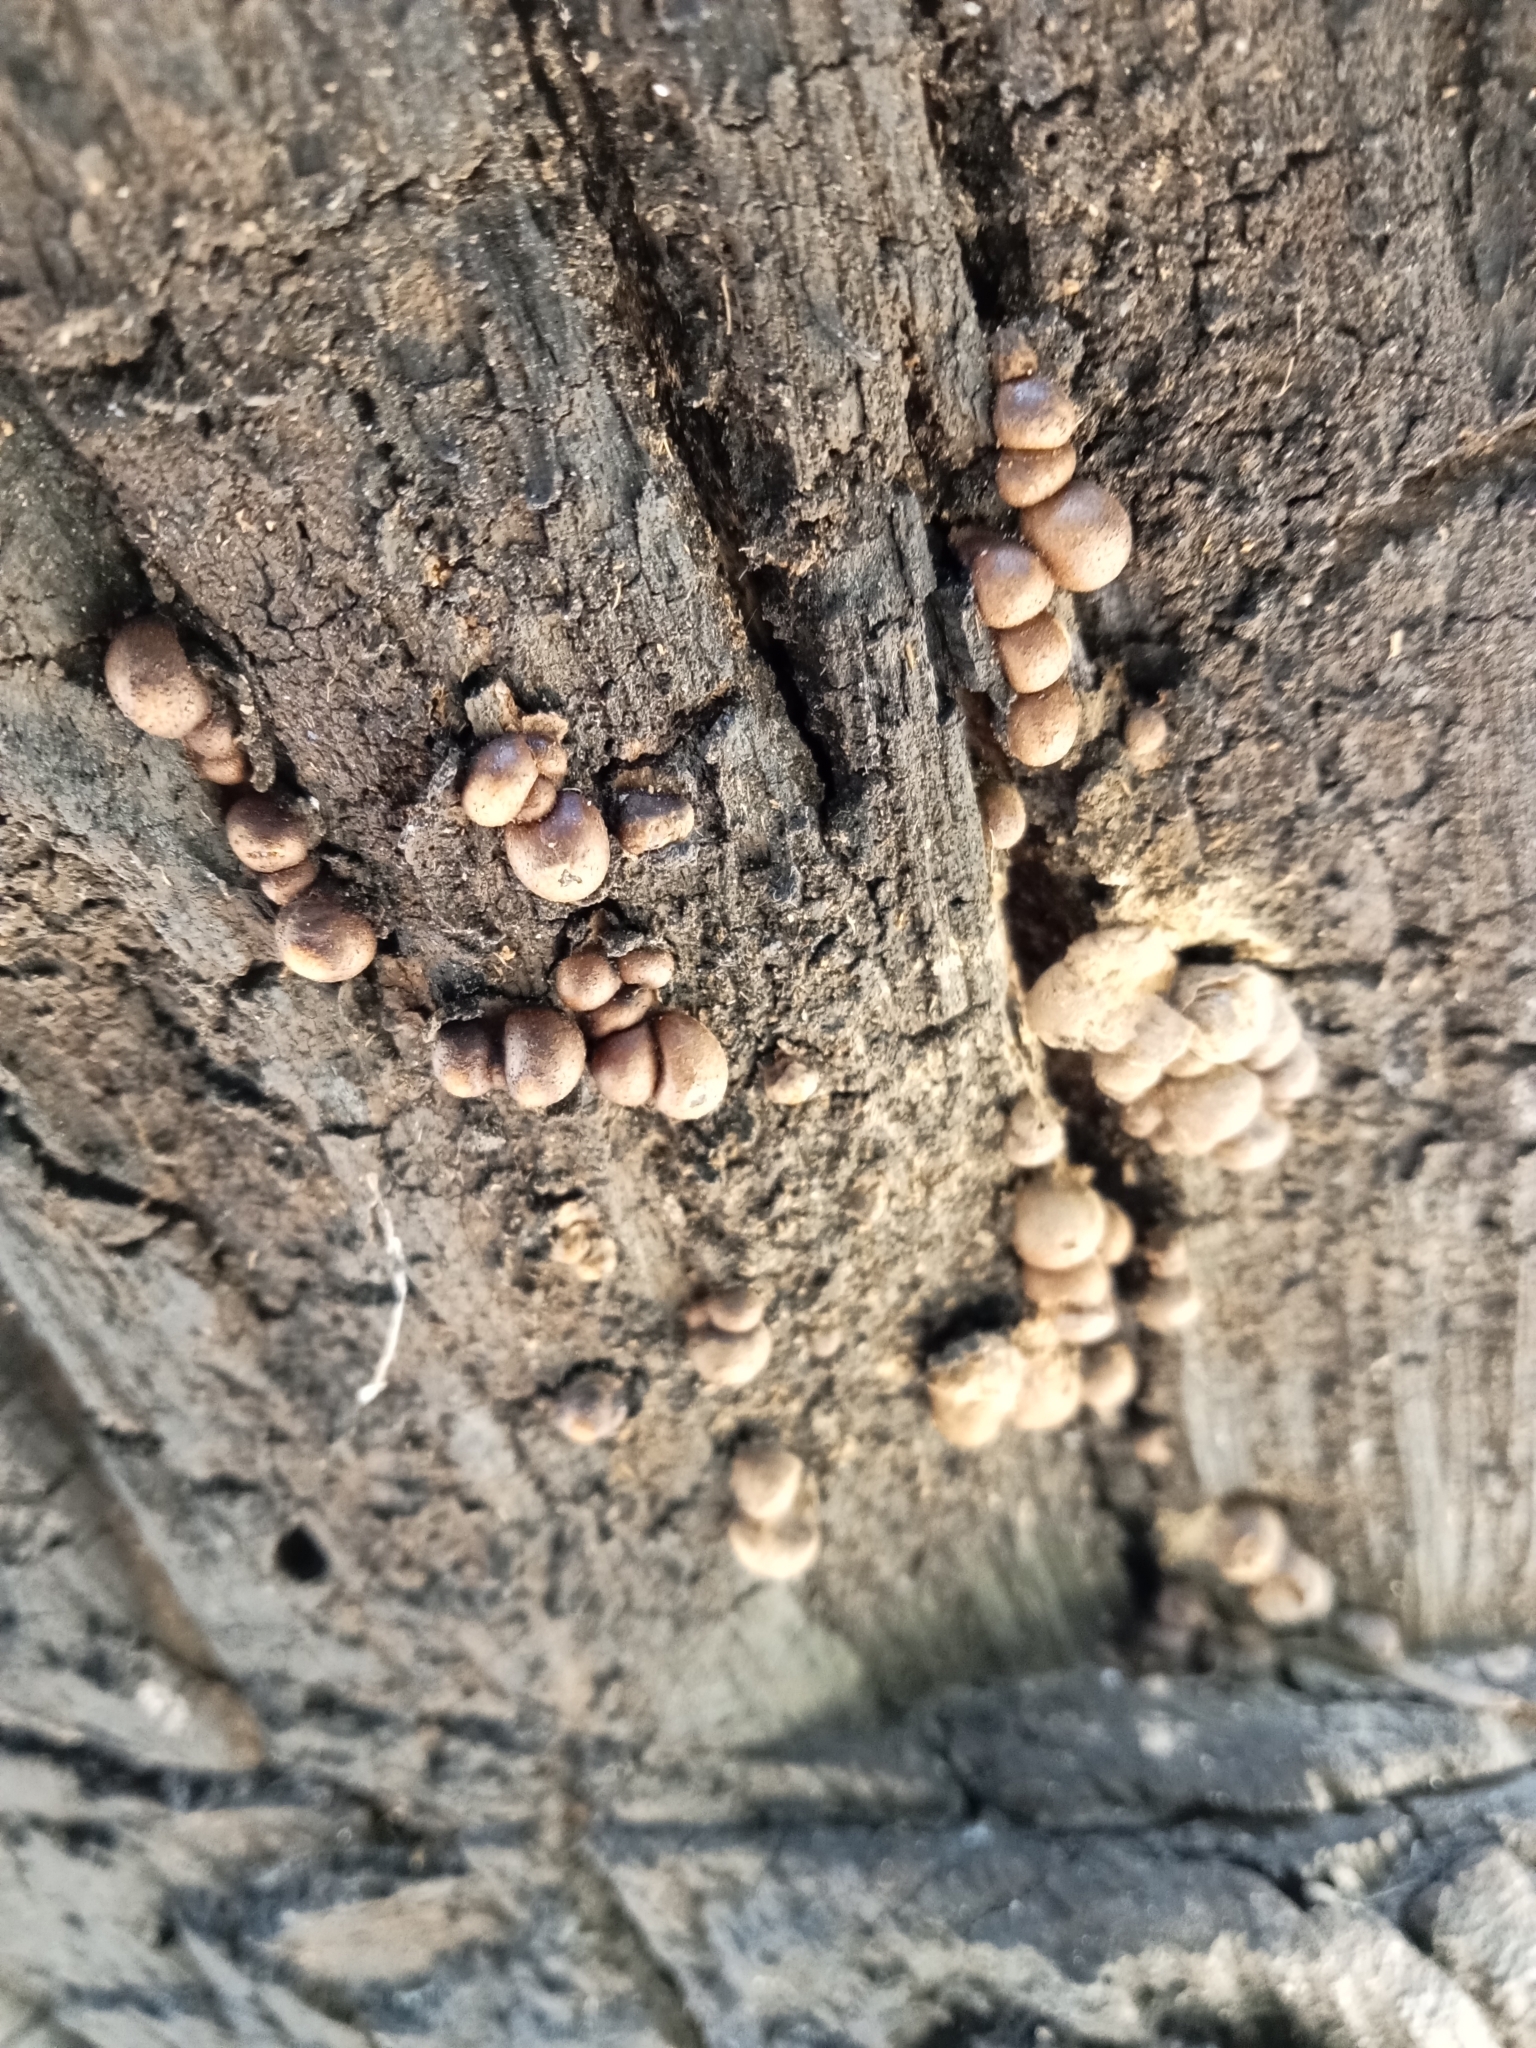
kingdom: Fungi
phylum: Basidiomycota
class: Agaricomycetes
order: Polyporales
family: Polyporaceae
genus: Cryptoporus
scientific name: Cryptoporus volvatus
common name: Veiled polypore
